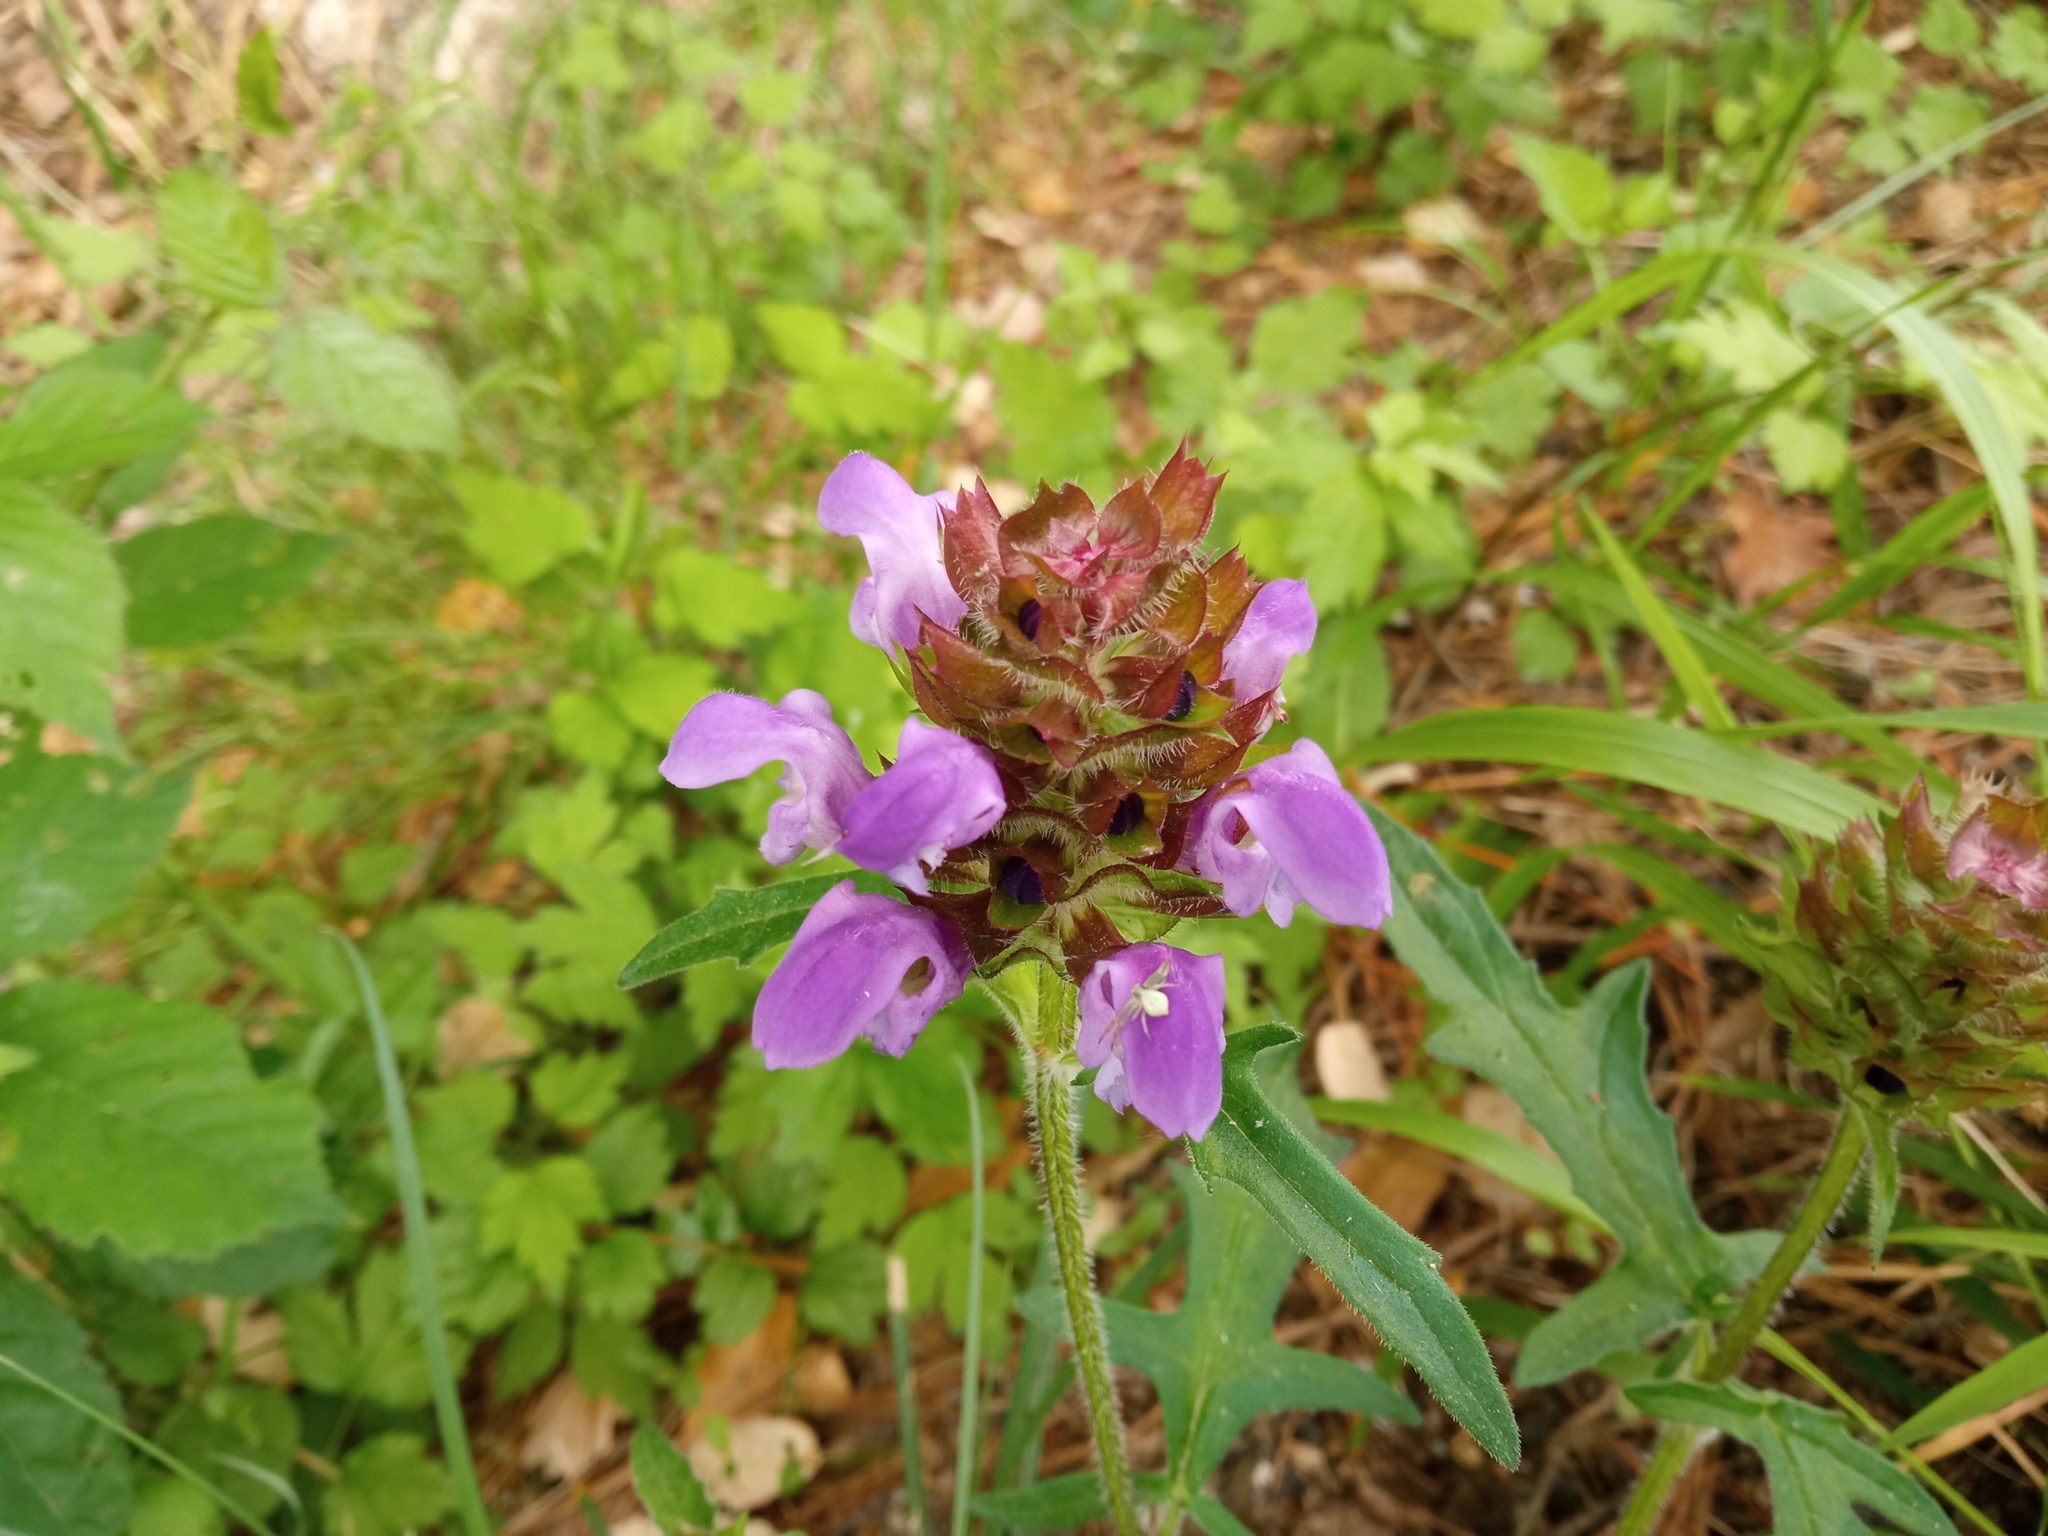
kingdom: Plantae
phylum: Tracheophyta
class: Magnoliopsida
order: Lamiales
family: Lamiaceae
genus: Prunella
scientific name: Prunella grandiflora
